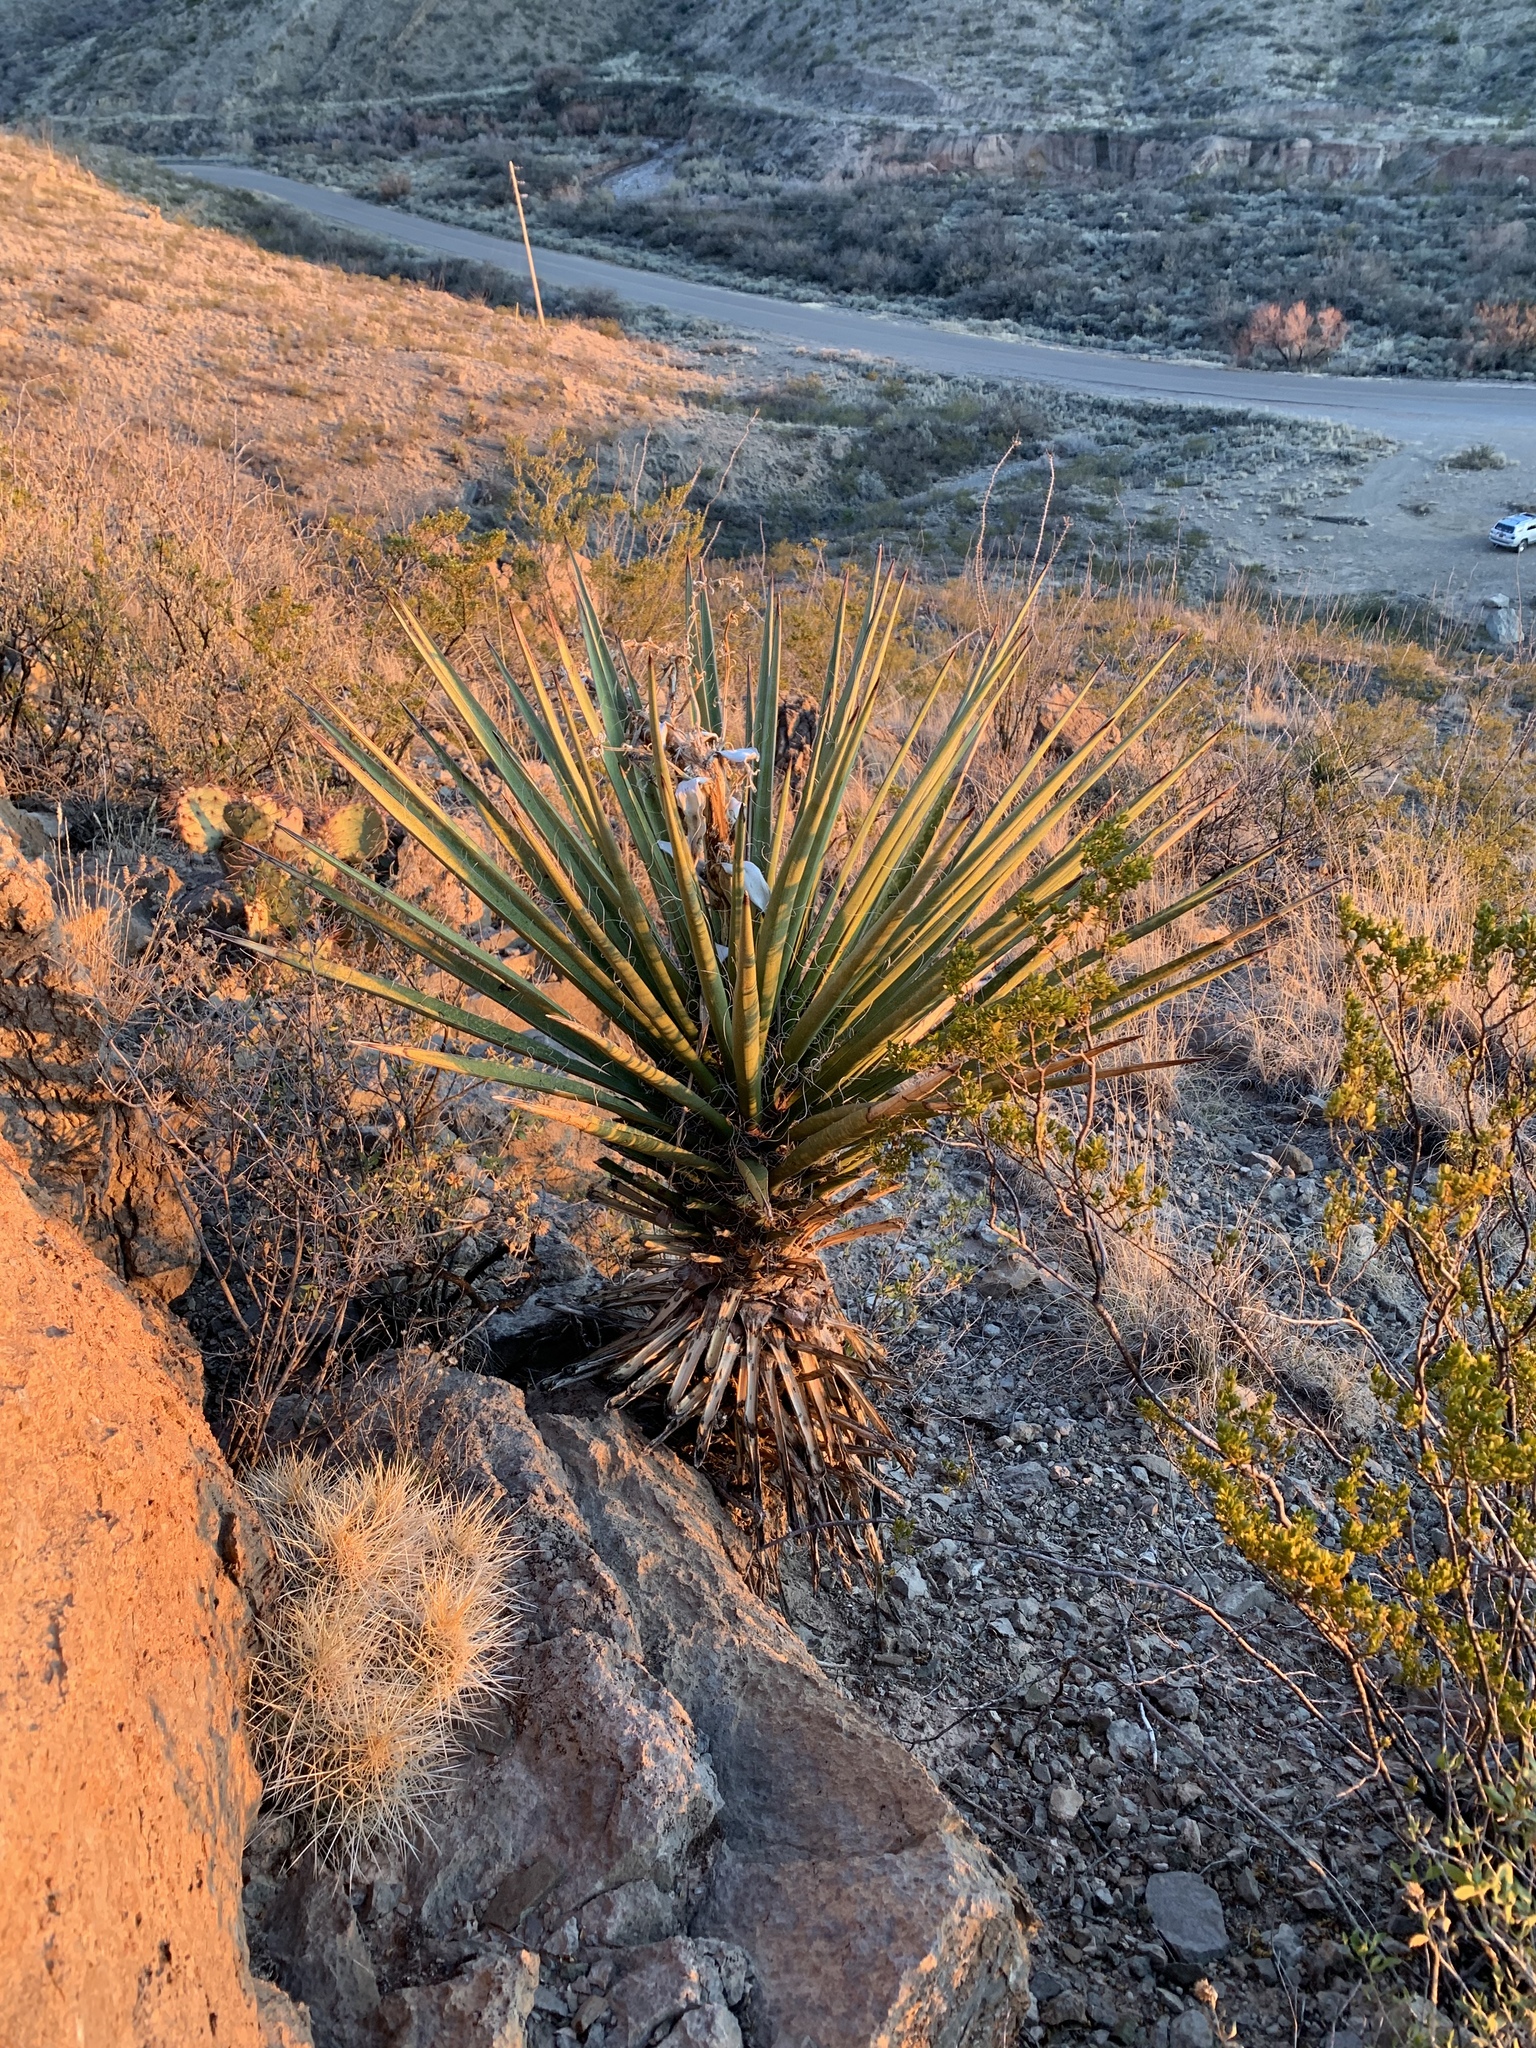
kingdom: Plantae
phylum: Tracheophyta
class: Liliopsida
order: Asparagales
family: Asparagaceae
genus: Yucca
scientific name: Yucca treculiana
